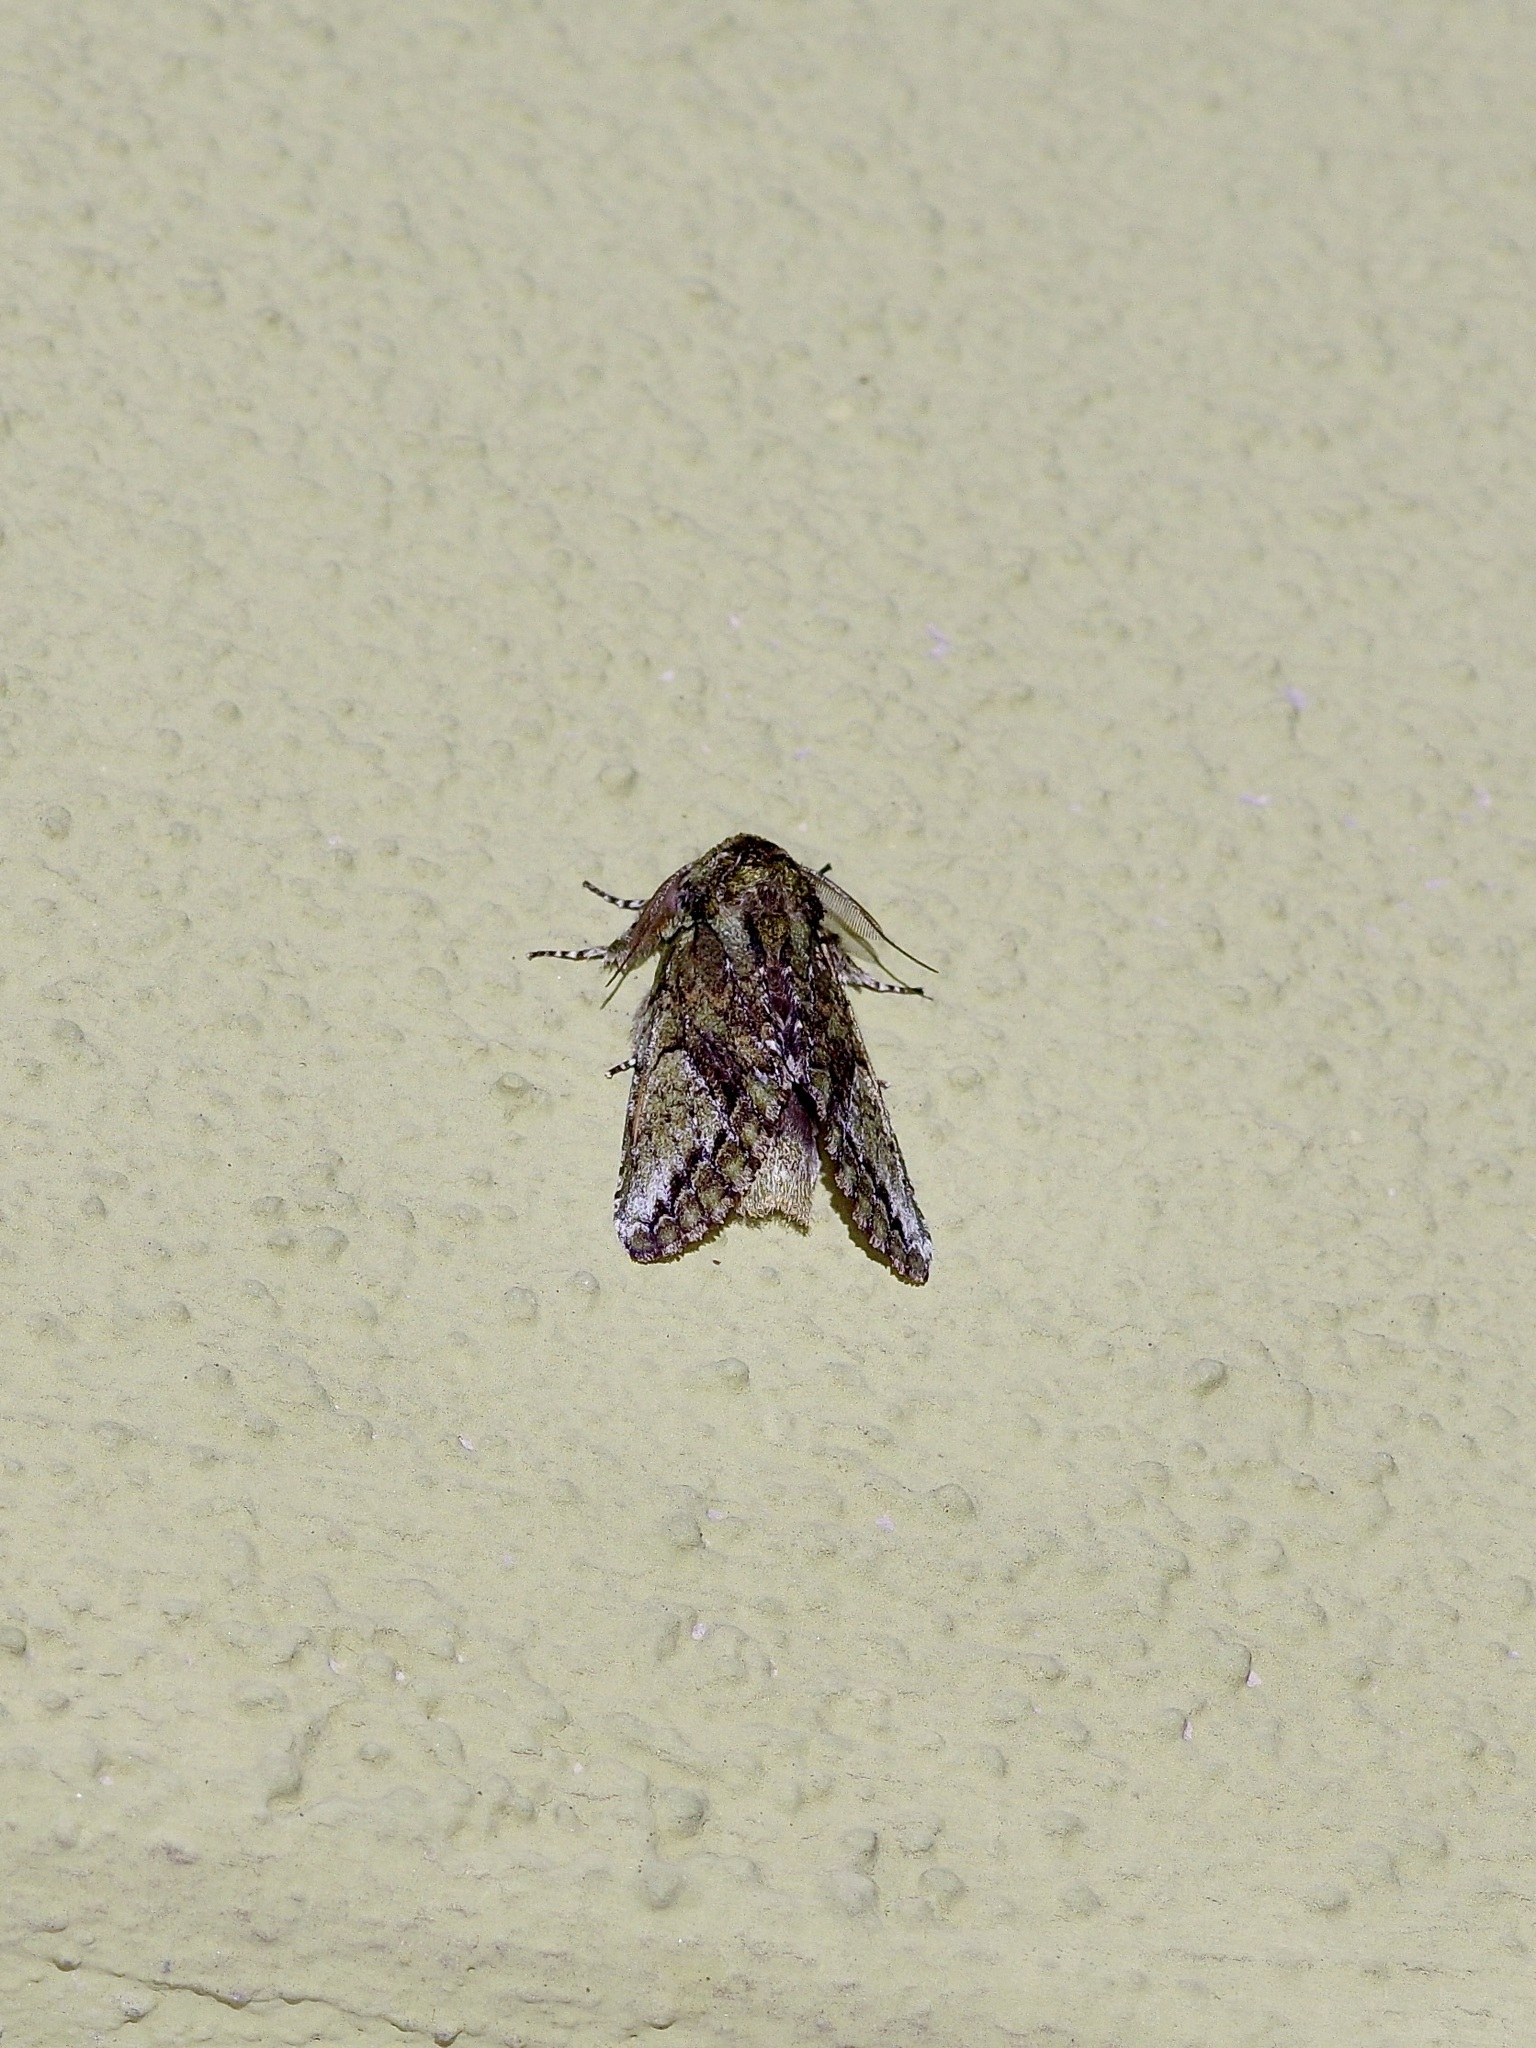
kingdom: Animalia
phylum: Arthropoda
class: Insecta
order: Lepidoptera
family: Notodontidae
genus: Heterocampa
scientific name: Heterocampa
